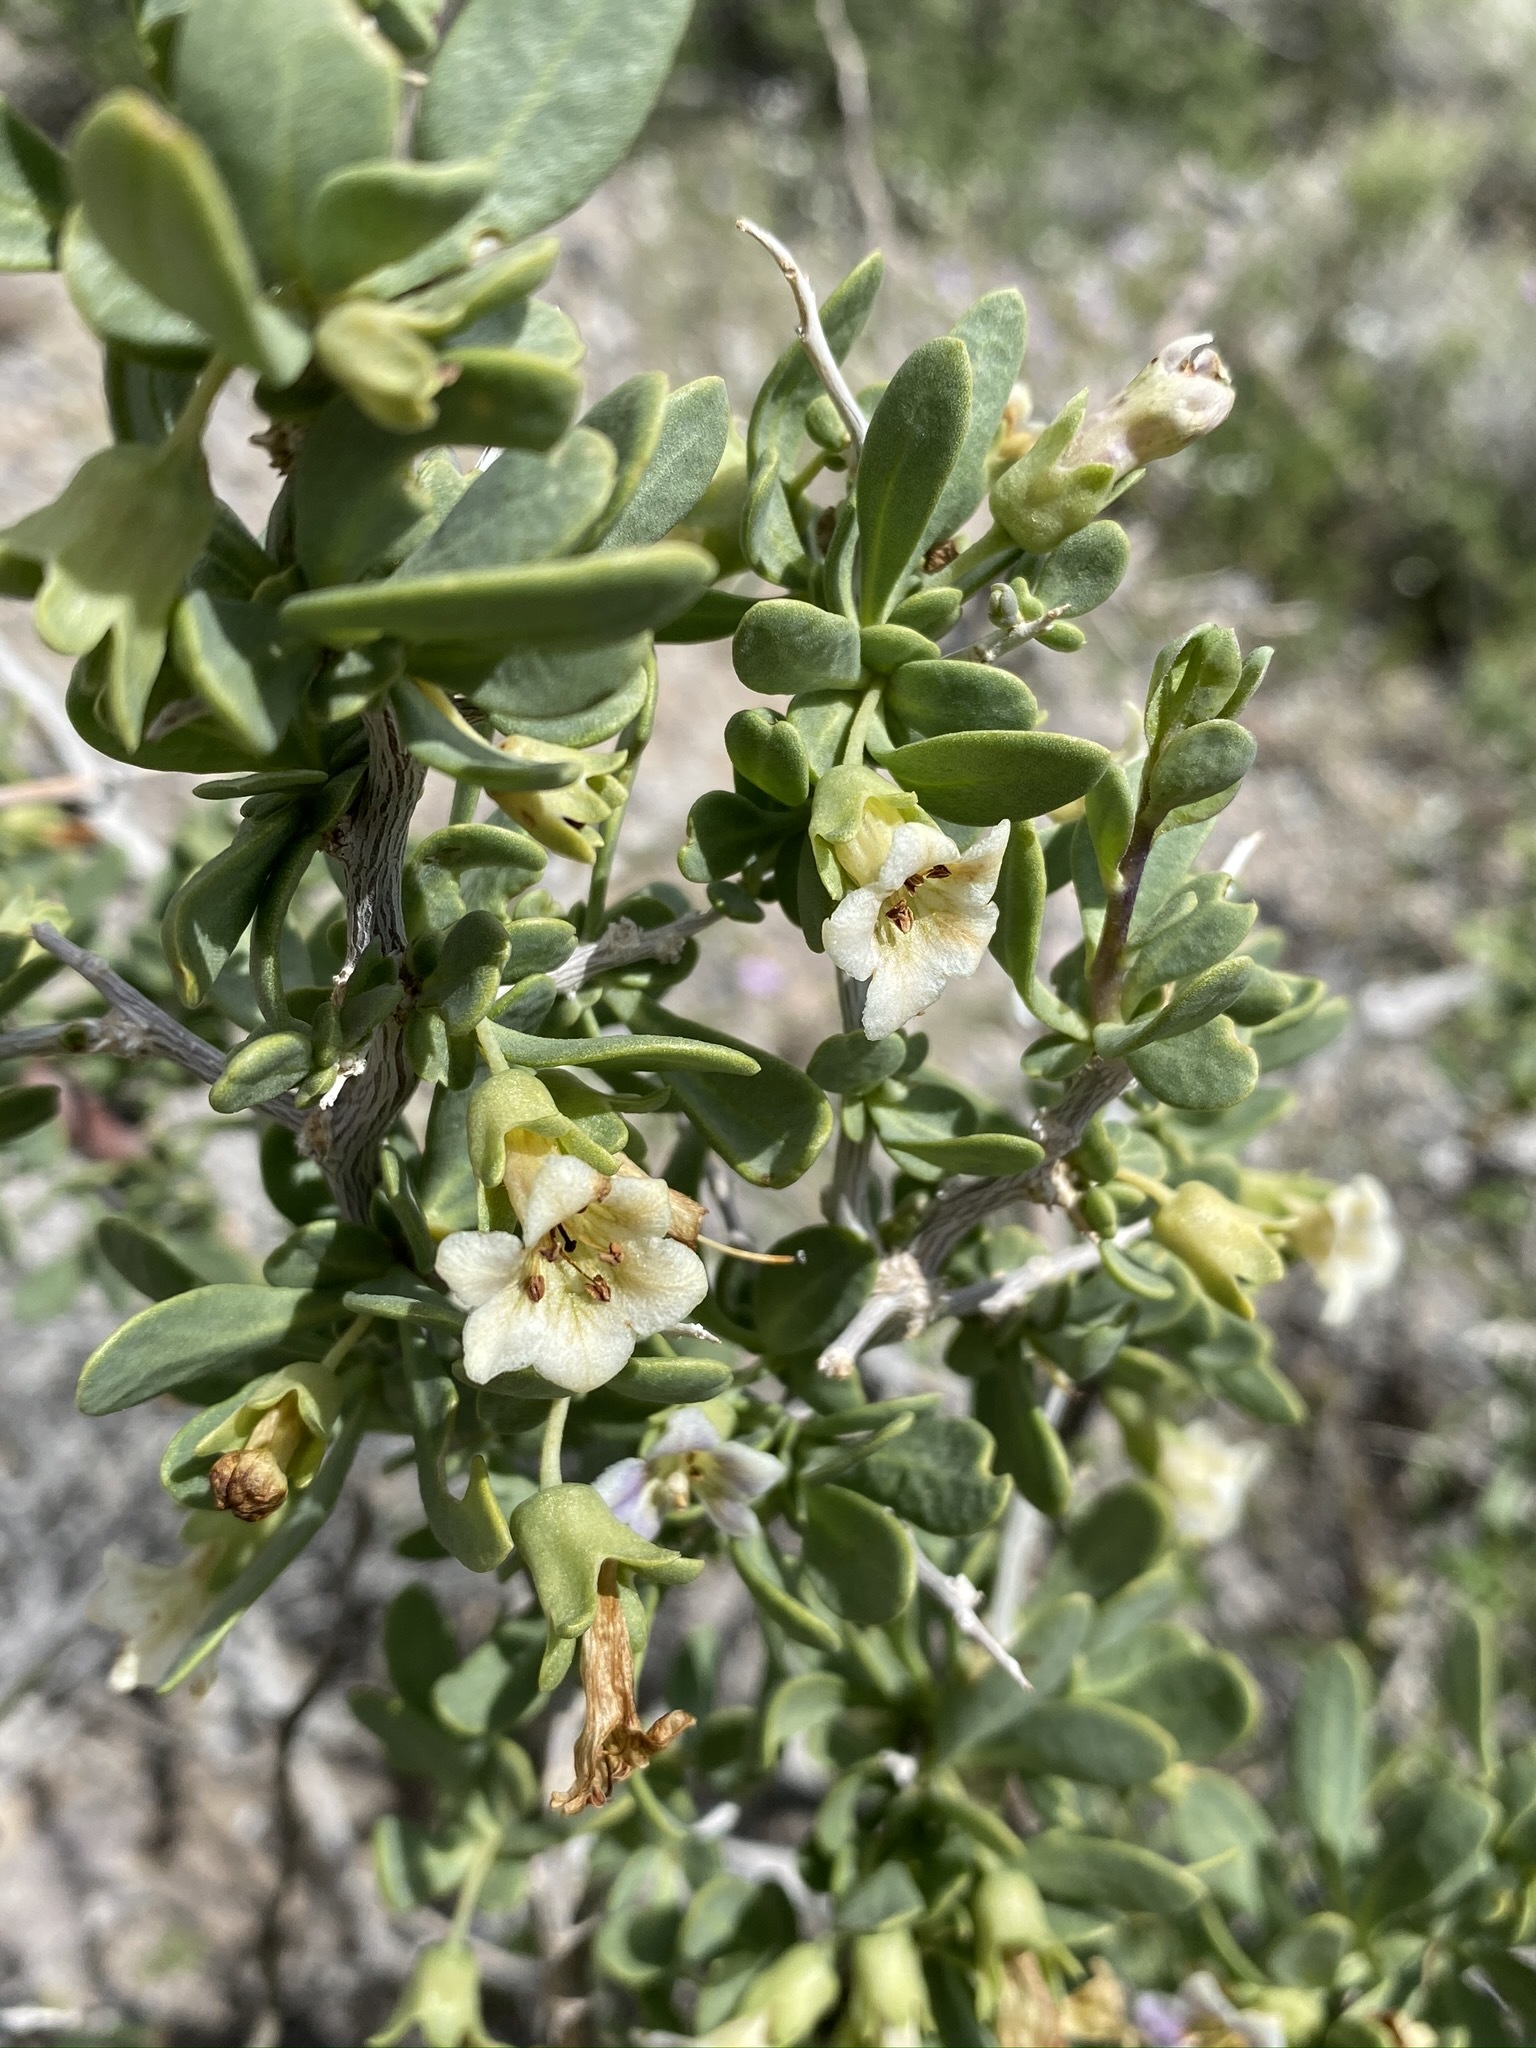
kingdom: Plantae
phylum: Tracheophyta
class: Magnoliopsida
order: Solanales
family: Solanaceae
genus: Lycium
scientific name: Lycium pallidum
